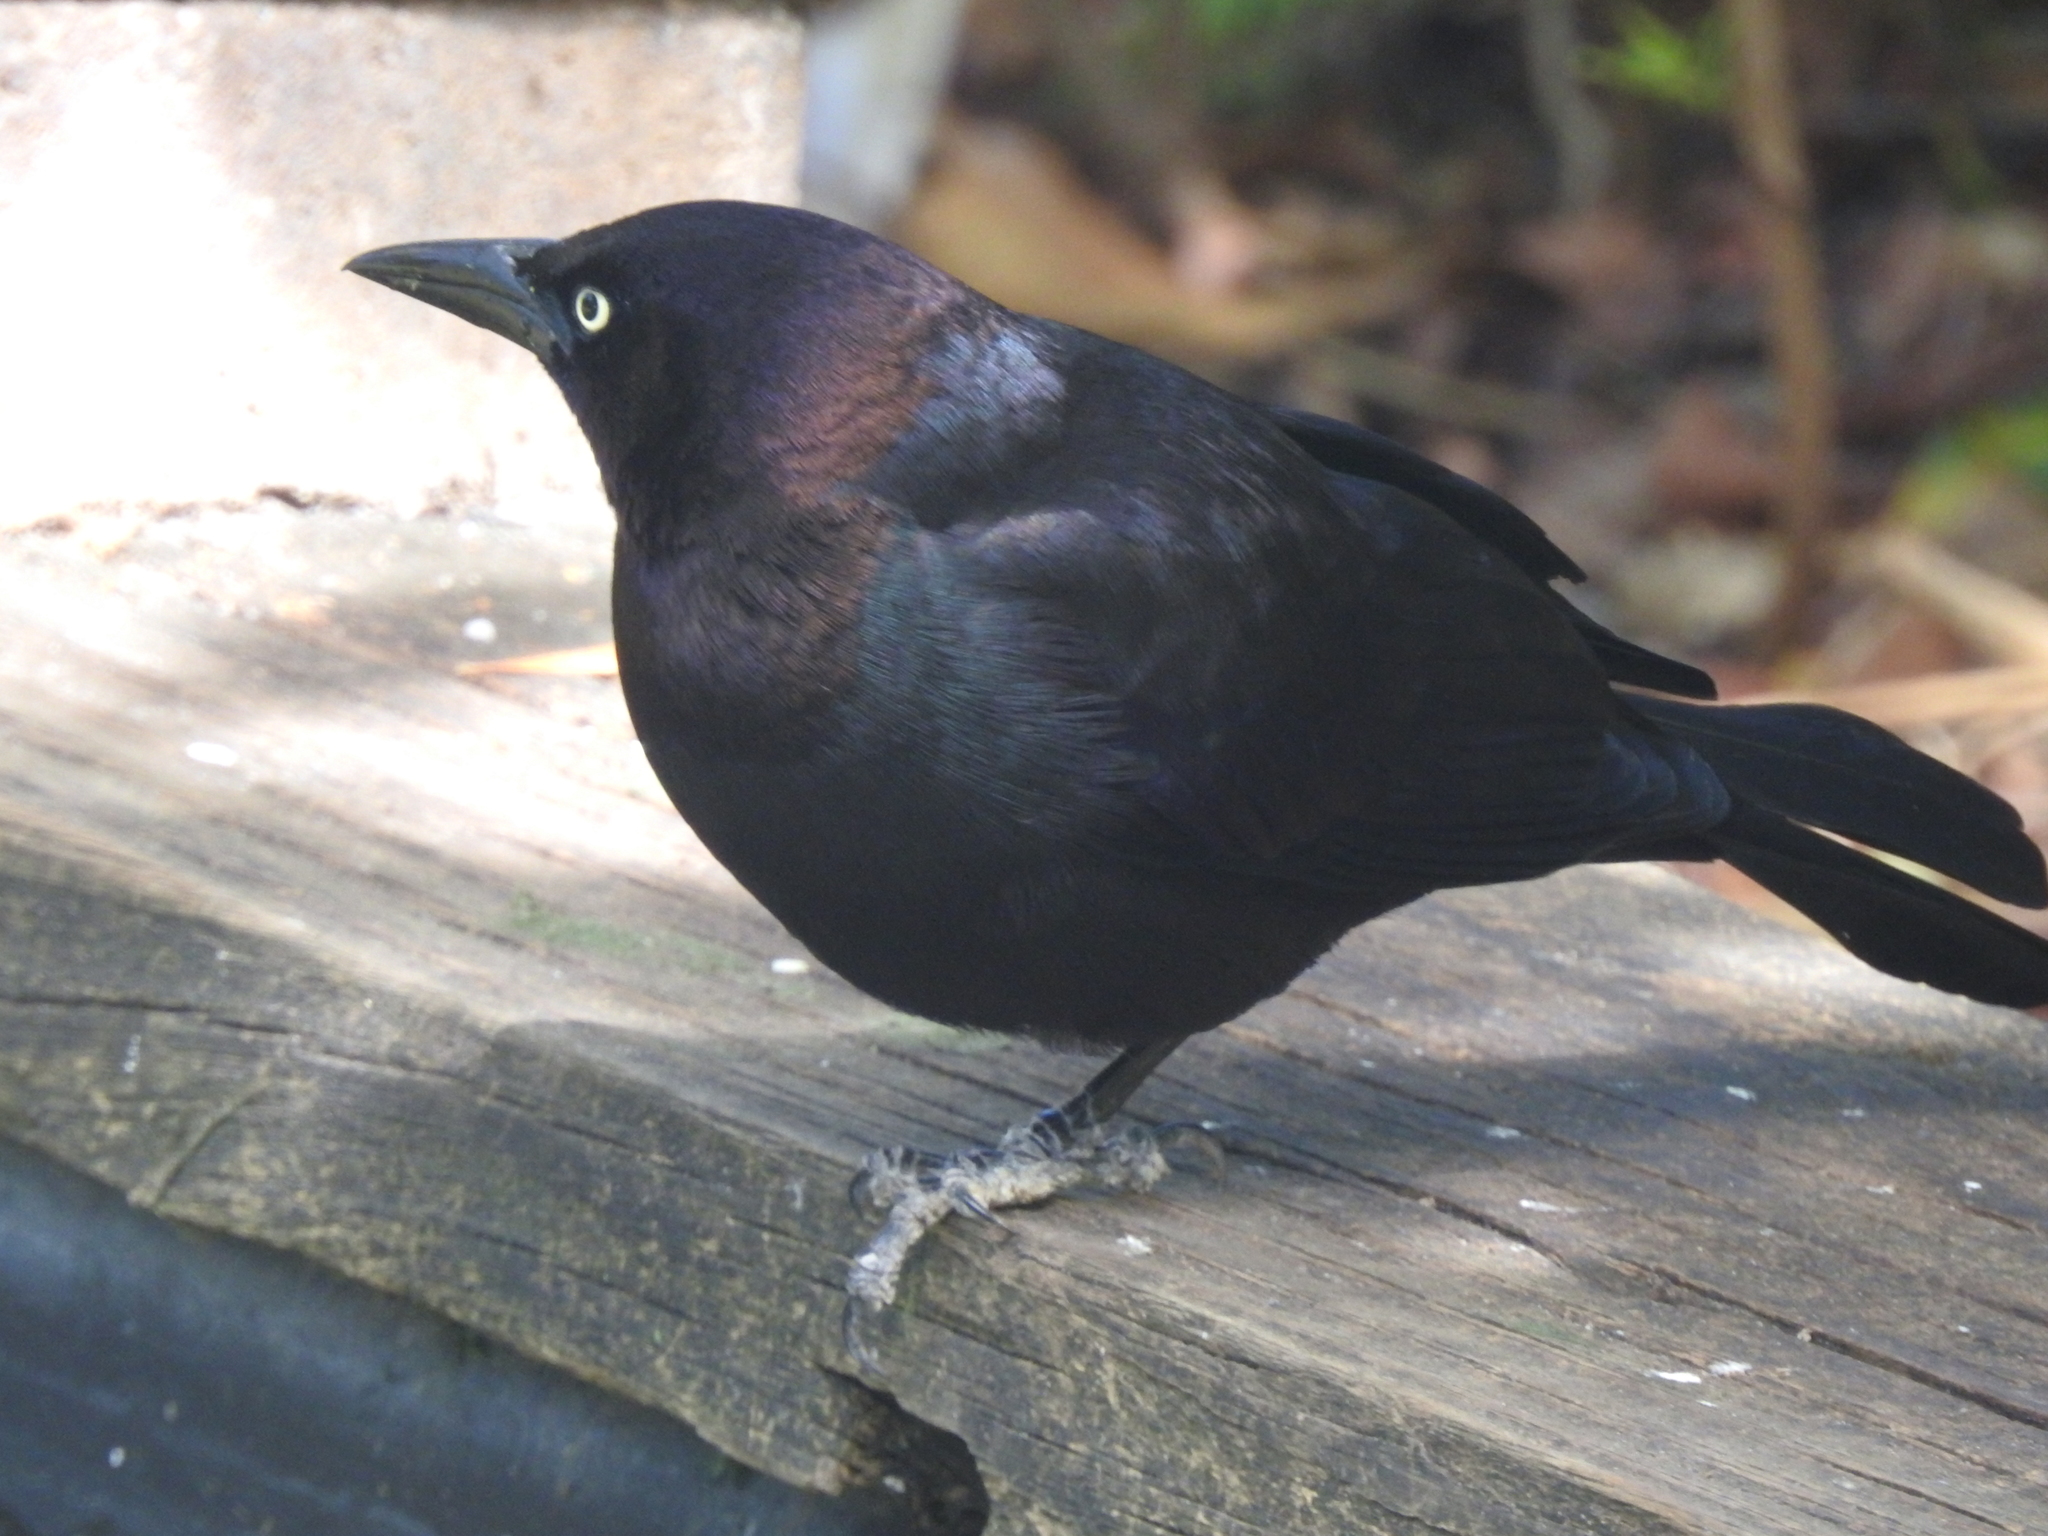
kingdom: Animalia
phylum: Chordata
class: Aves
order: Passeriformes
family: Icteridae
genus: Quiscalus
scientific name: Quiscalus quiscula
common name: Common grackle
